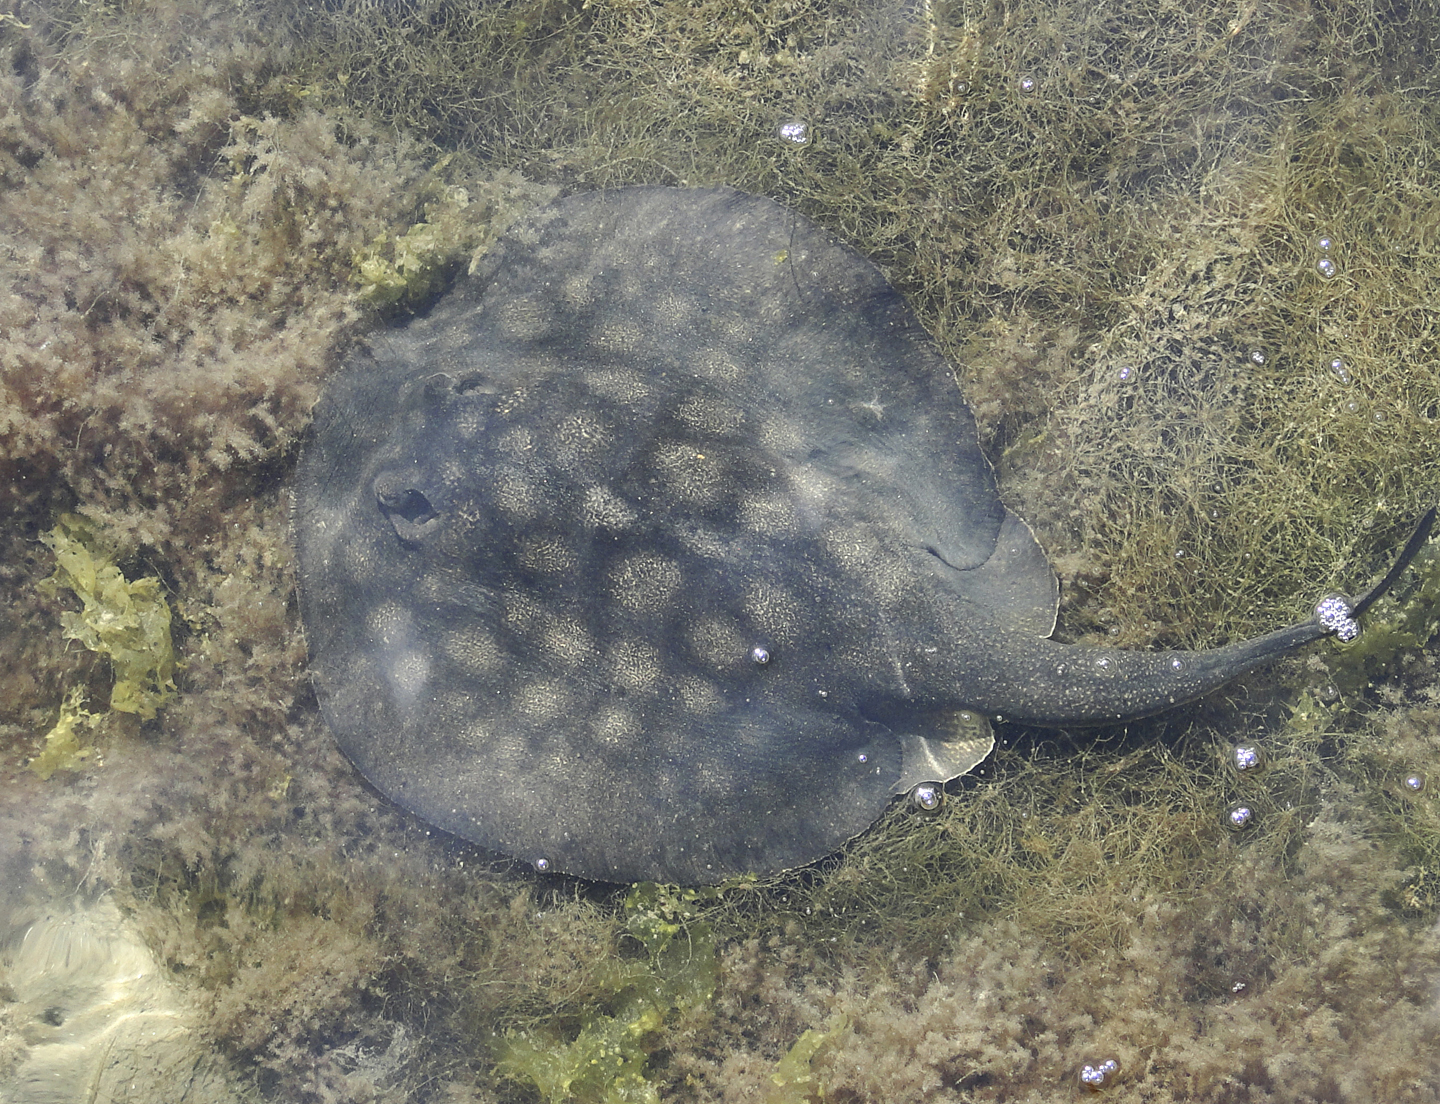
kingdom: Animalia
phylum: Chordata
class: Elasmobranchii
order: Myliobatiformes
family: Urolophidae
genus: Urolophus
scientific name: Urolophus halleri
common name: Round stingray
